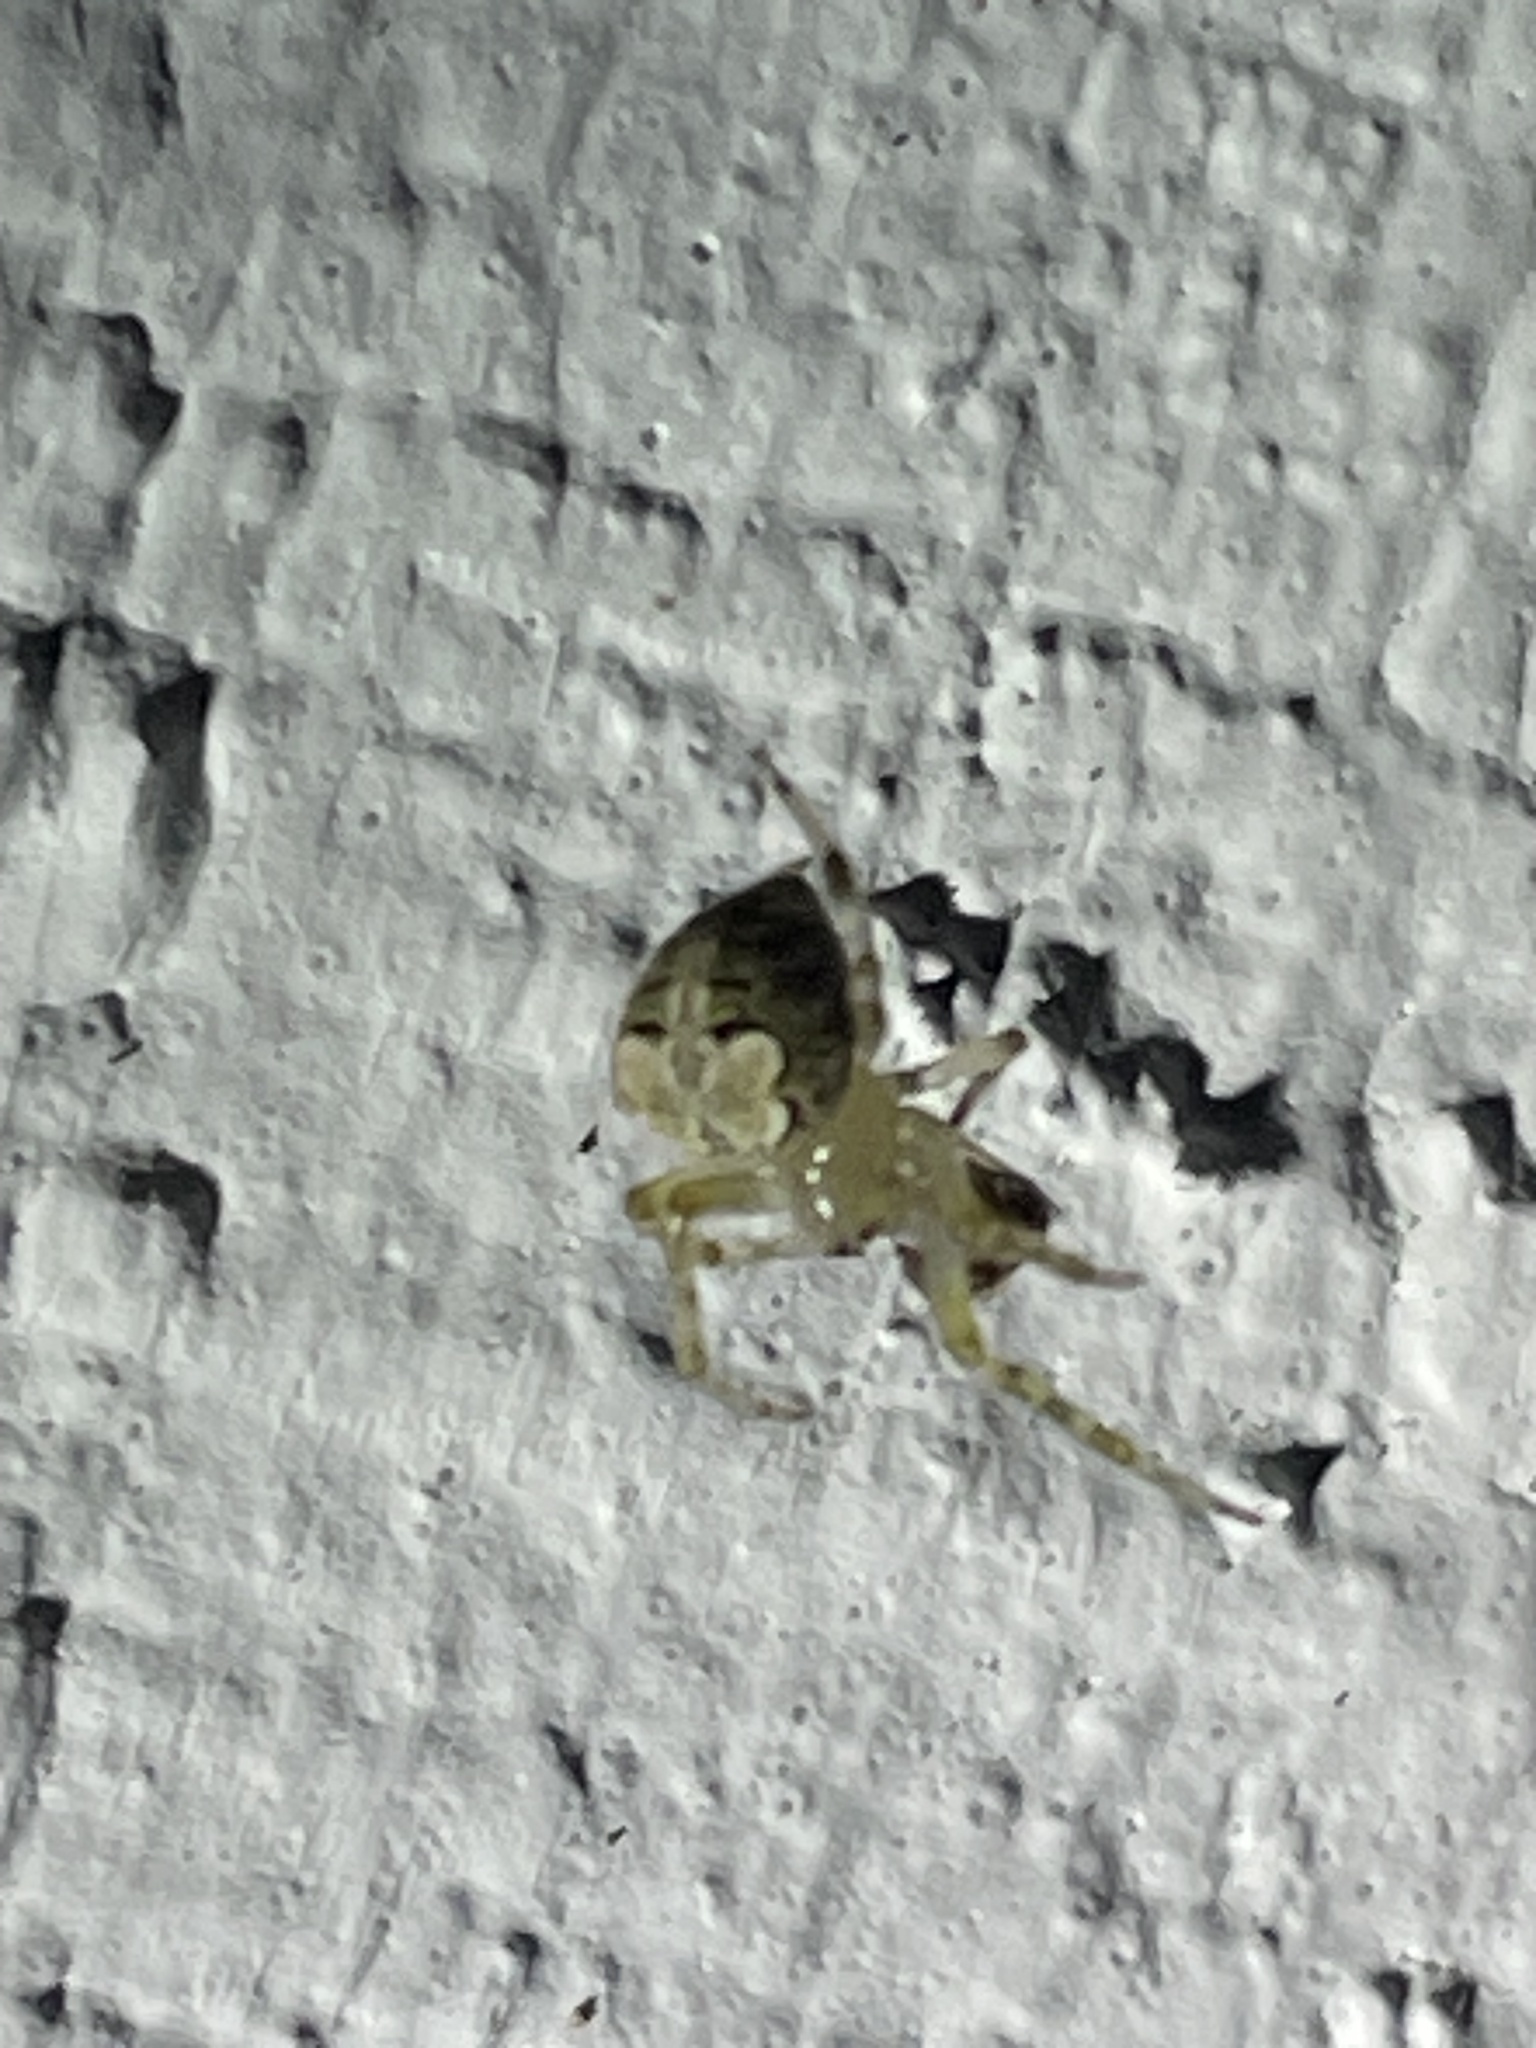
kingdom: Animalia
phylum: Arthropoda
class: Arachnida
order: Araneae
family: Araneidae
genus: Araneus
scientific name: Araneus pegnia
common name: Orb weavers
